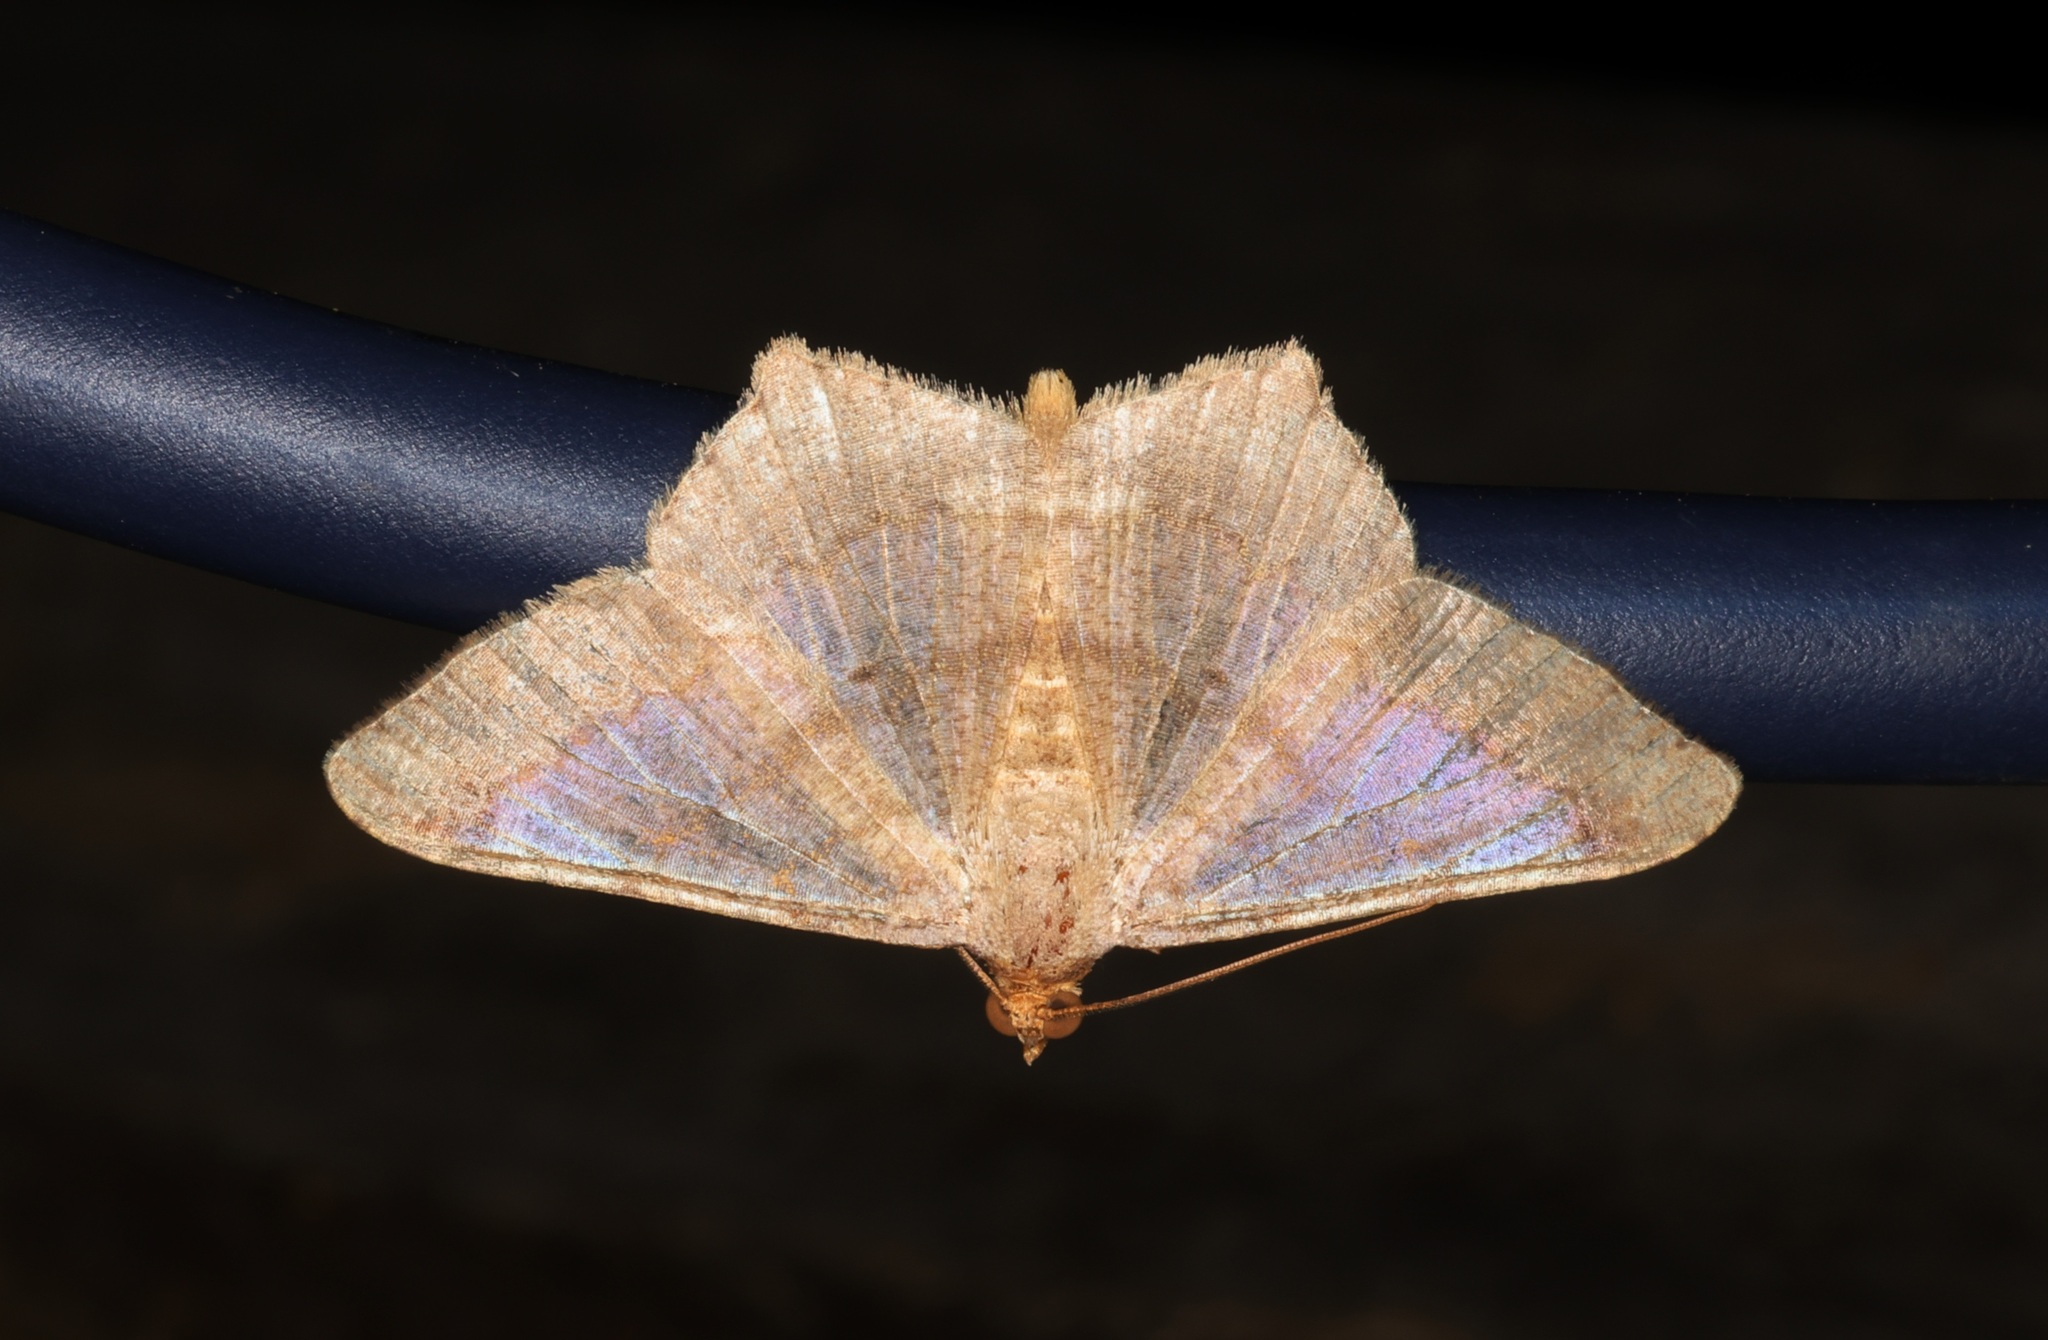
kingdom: Animalia
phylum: Arthropoda
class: Insecta
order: Lepidoptera
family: Geometridae
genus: Macaria
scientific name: Macaria abydata
